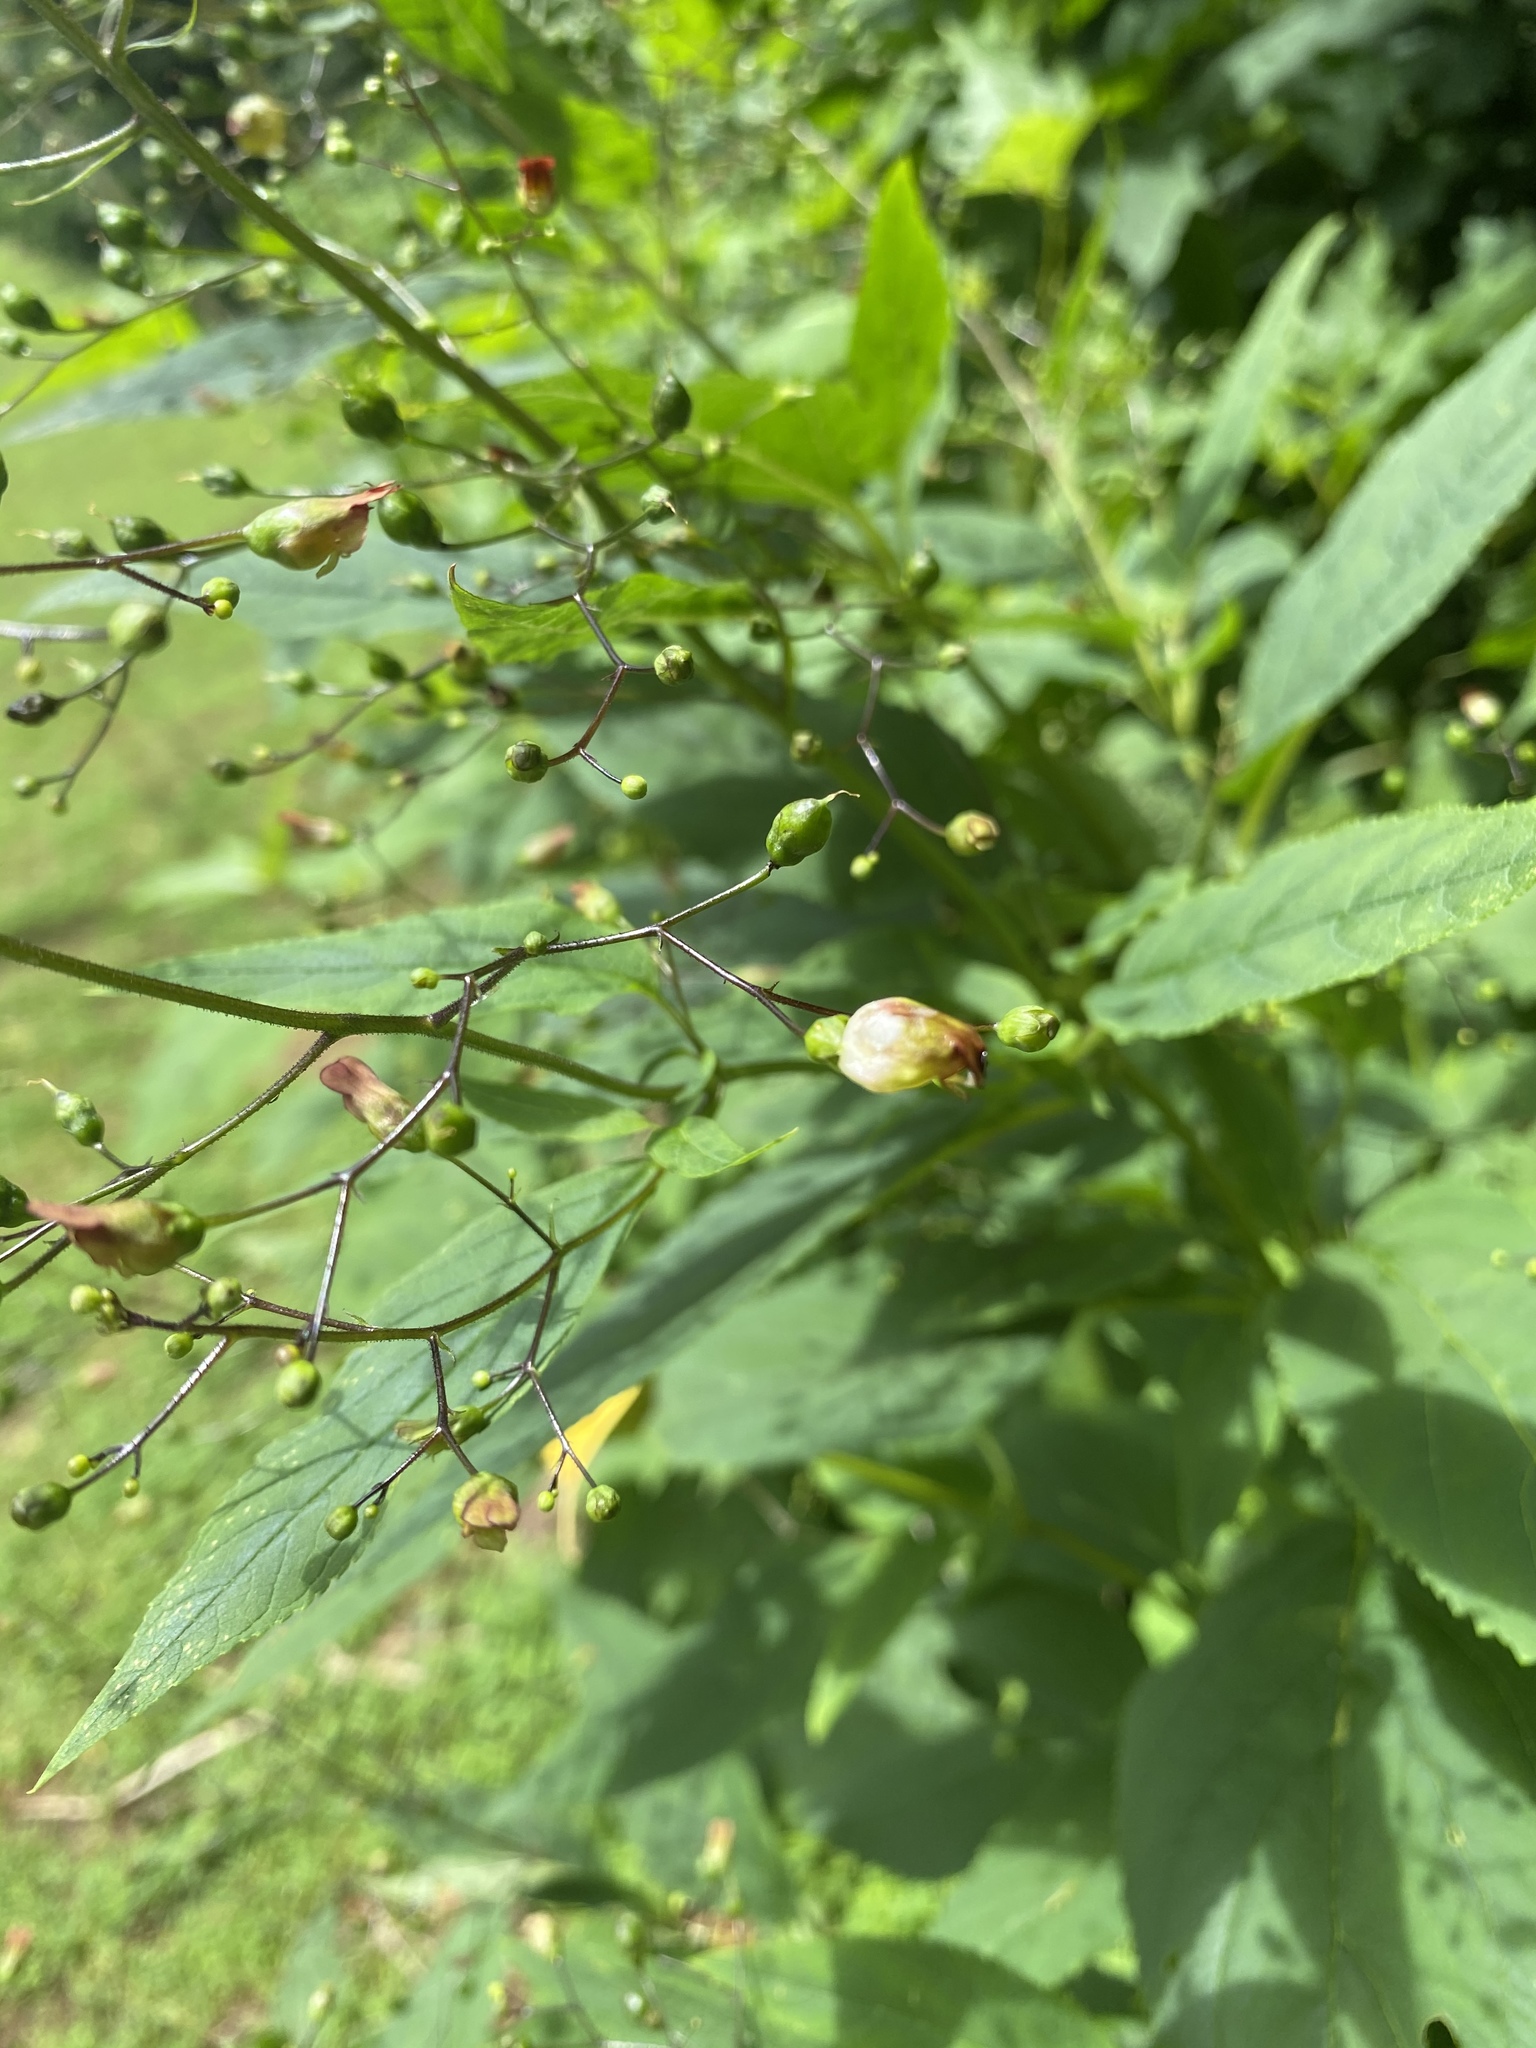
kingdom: Plantae
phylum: Tracheophyta
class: Magnoliopsida
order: Lamiales
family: Scrophulariaceae
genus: Scrophularia
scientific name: Scrophularia marilandica
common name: Eastern figwort
